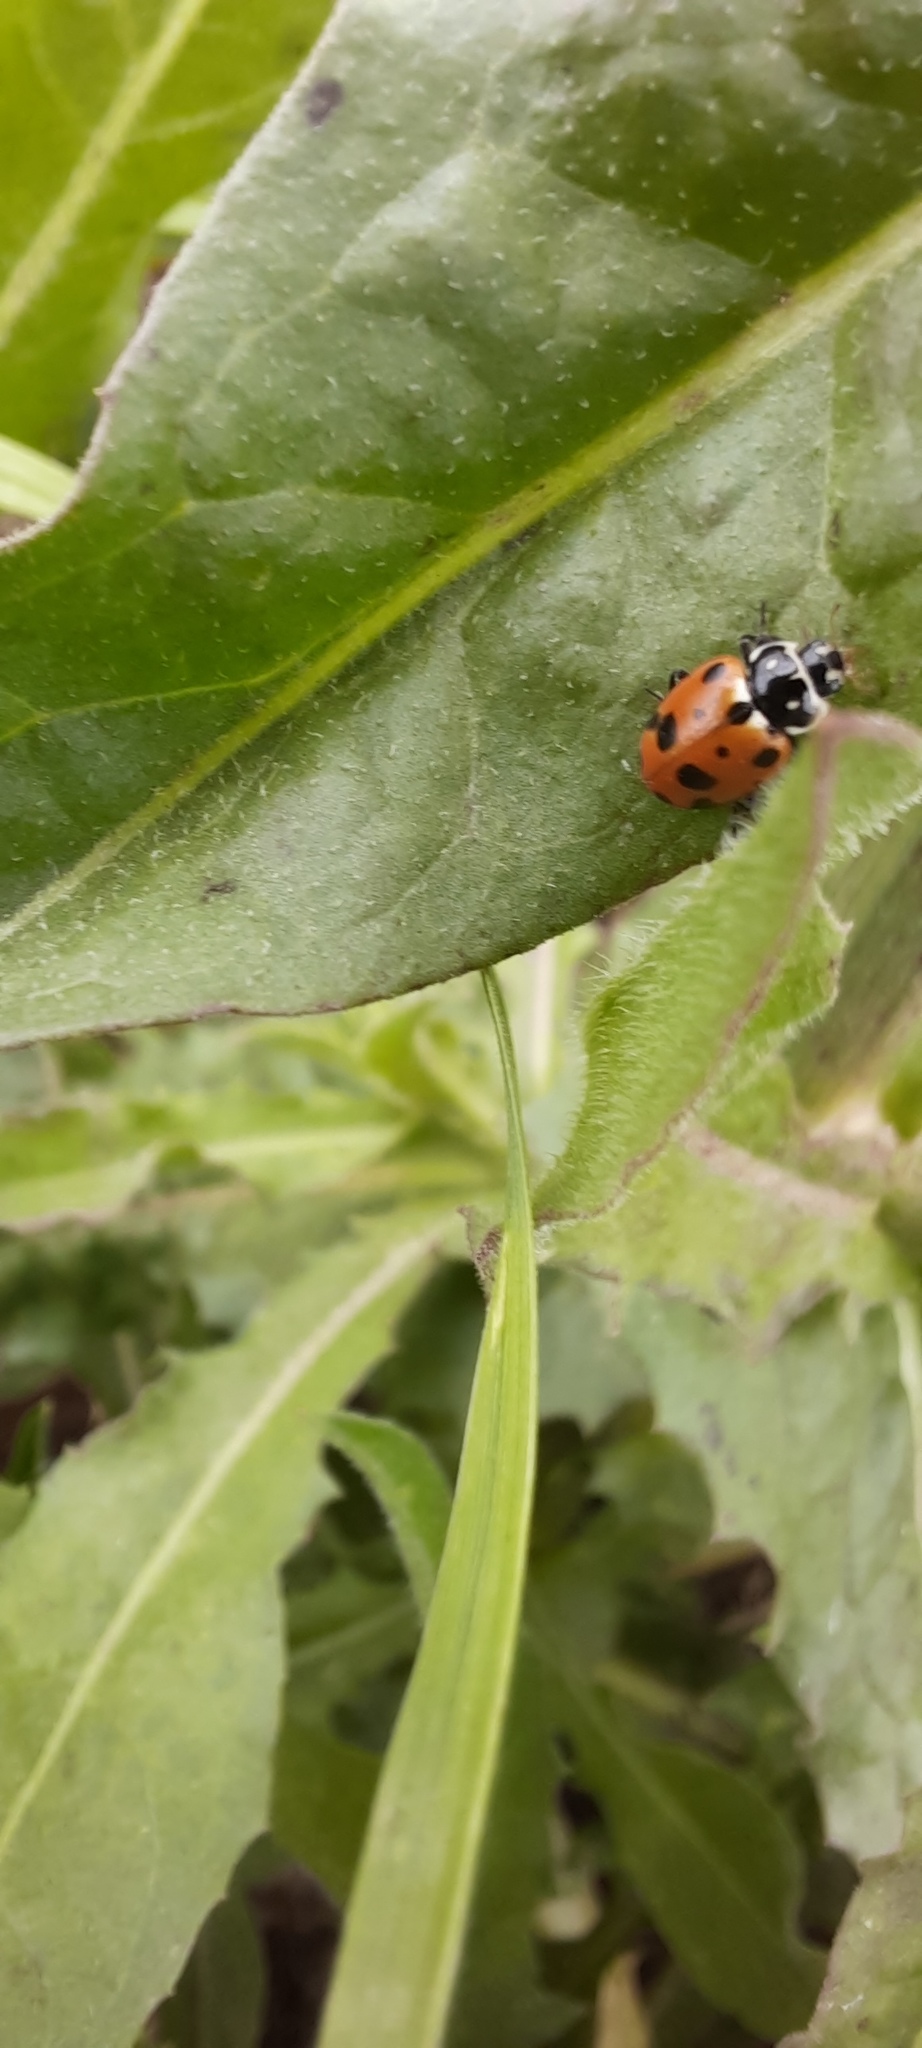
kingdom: Animalia
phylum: Arthropoda
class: Insecta
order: Coleoptera
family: Coccinellidae
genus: Hippodamia
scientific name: Hippodamia variegata
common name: Ladybird beetle
